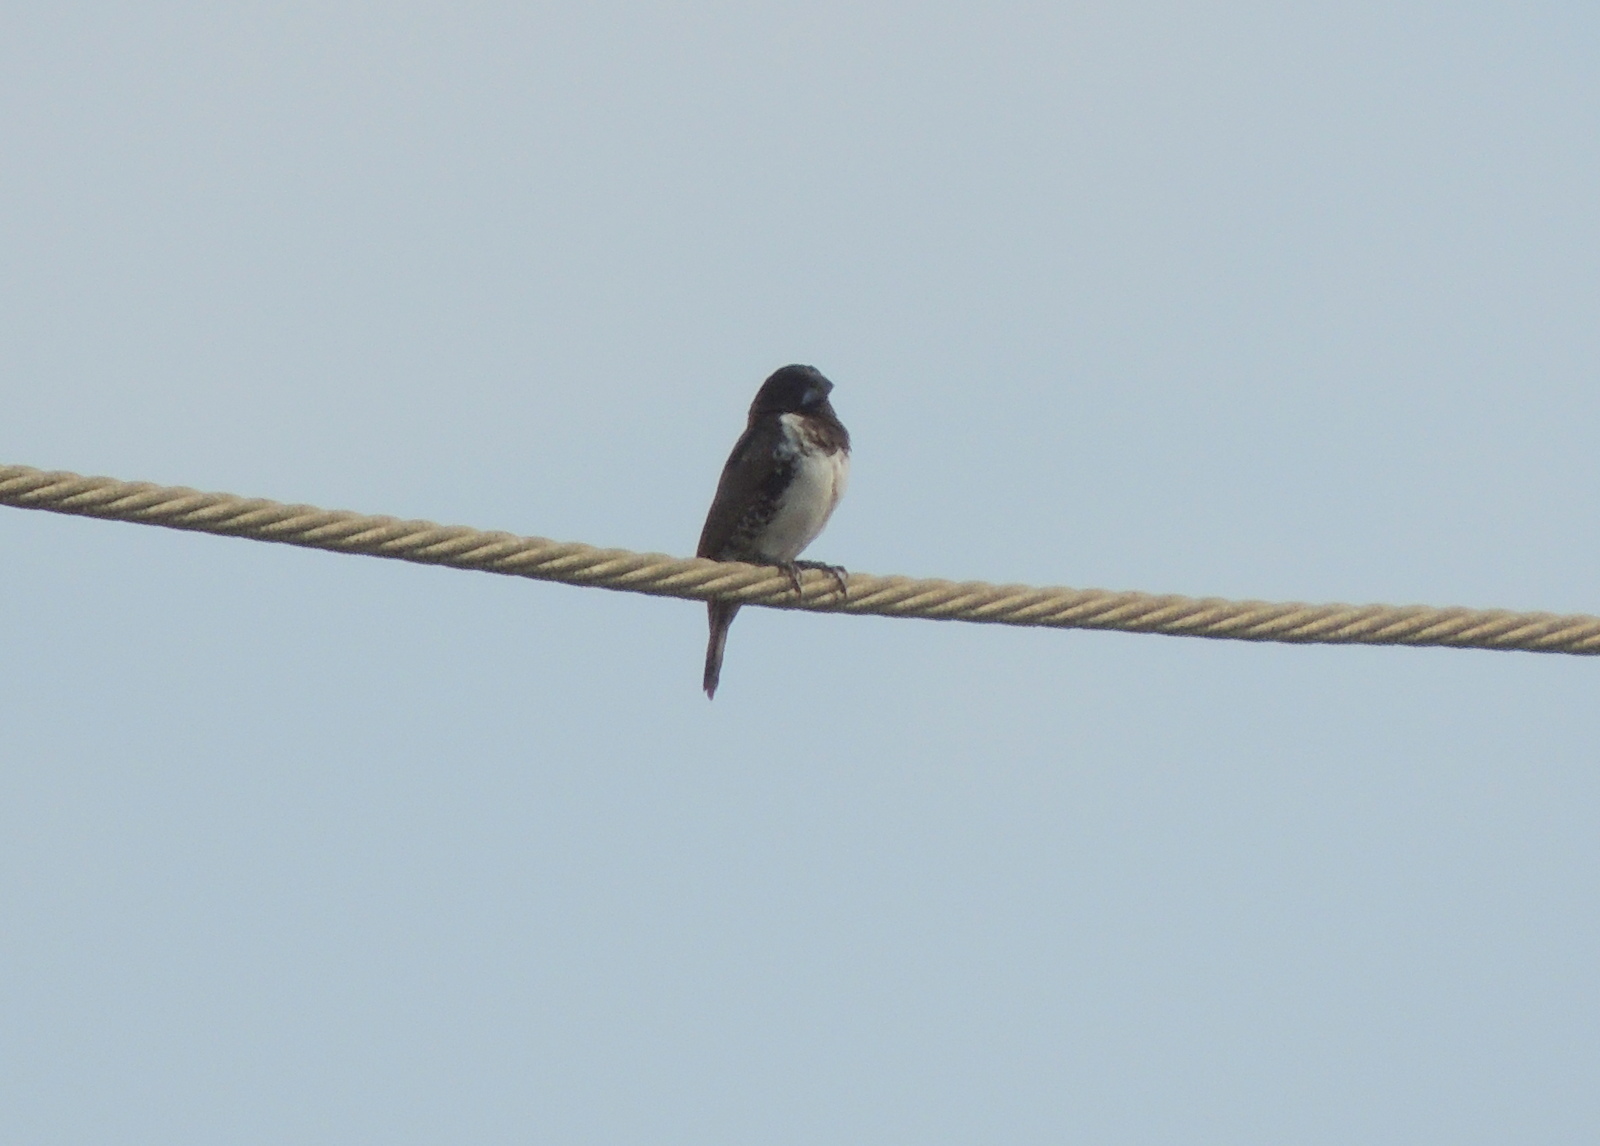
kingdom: Animalia
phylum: Chordata
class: Aves
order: Passeriformes
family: Estrildidae
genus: Lonchura
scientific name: Lonchura cucullata
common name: Bronze mannikin
